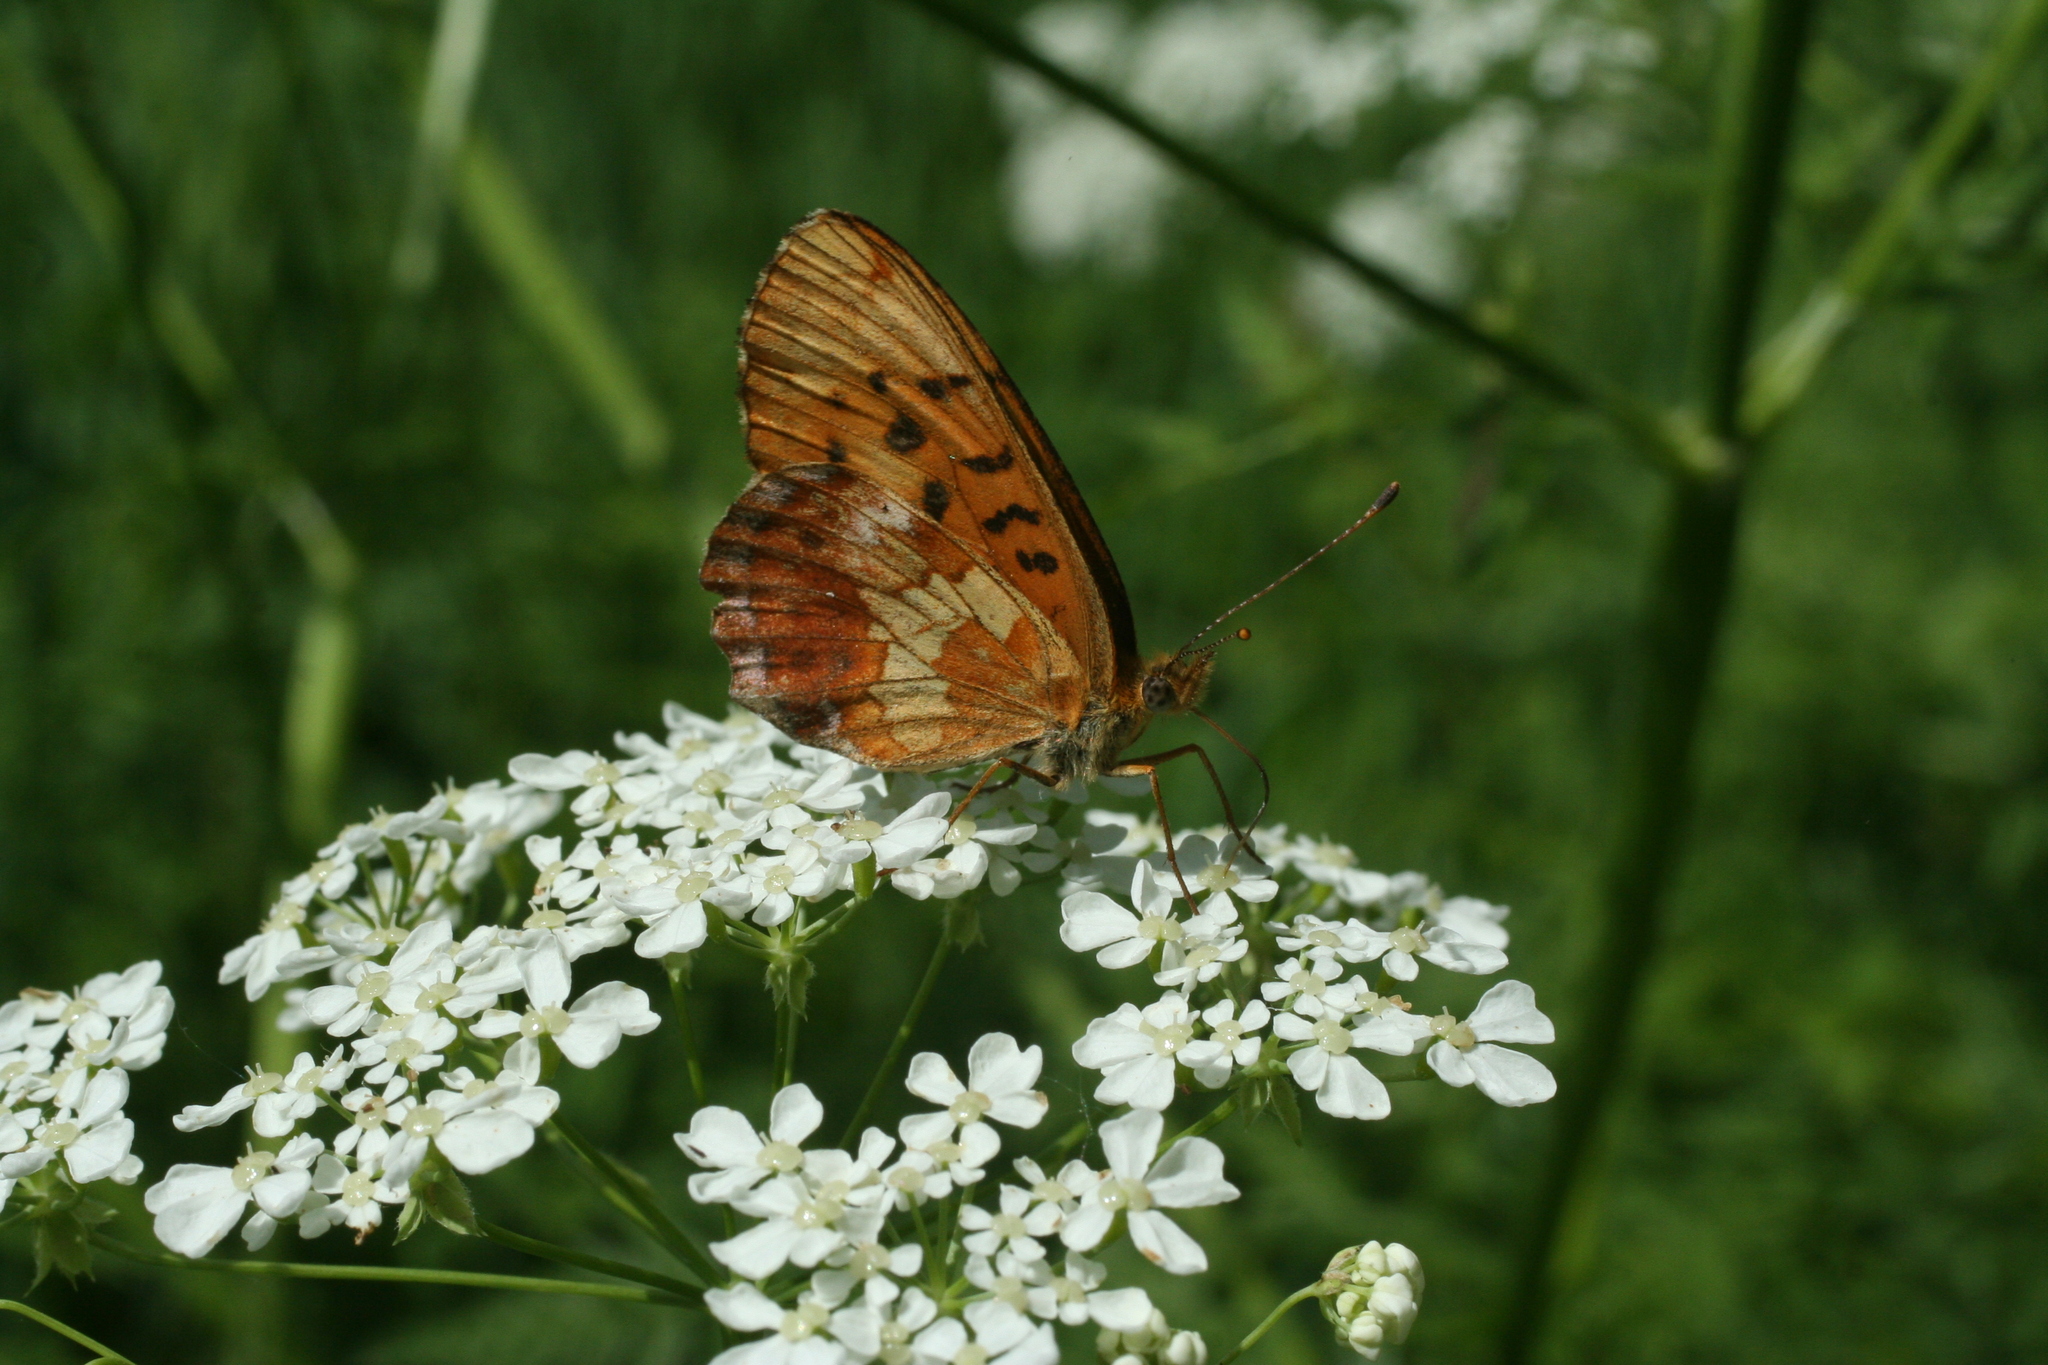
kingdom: Animalia
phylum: Arthropoda
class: Insecta
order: Lepidoptera
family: Nymphalidae
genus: Boloria
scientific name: Boloria thore
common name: Thor's fritillary
